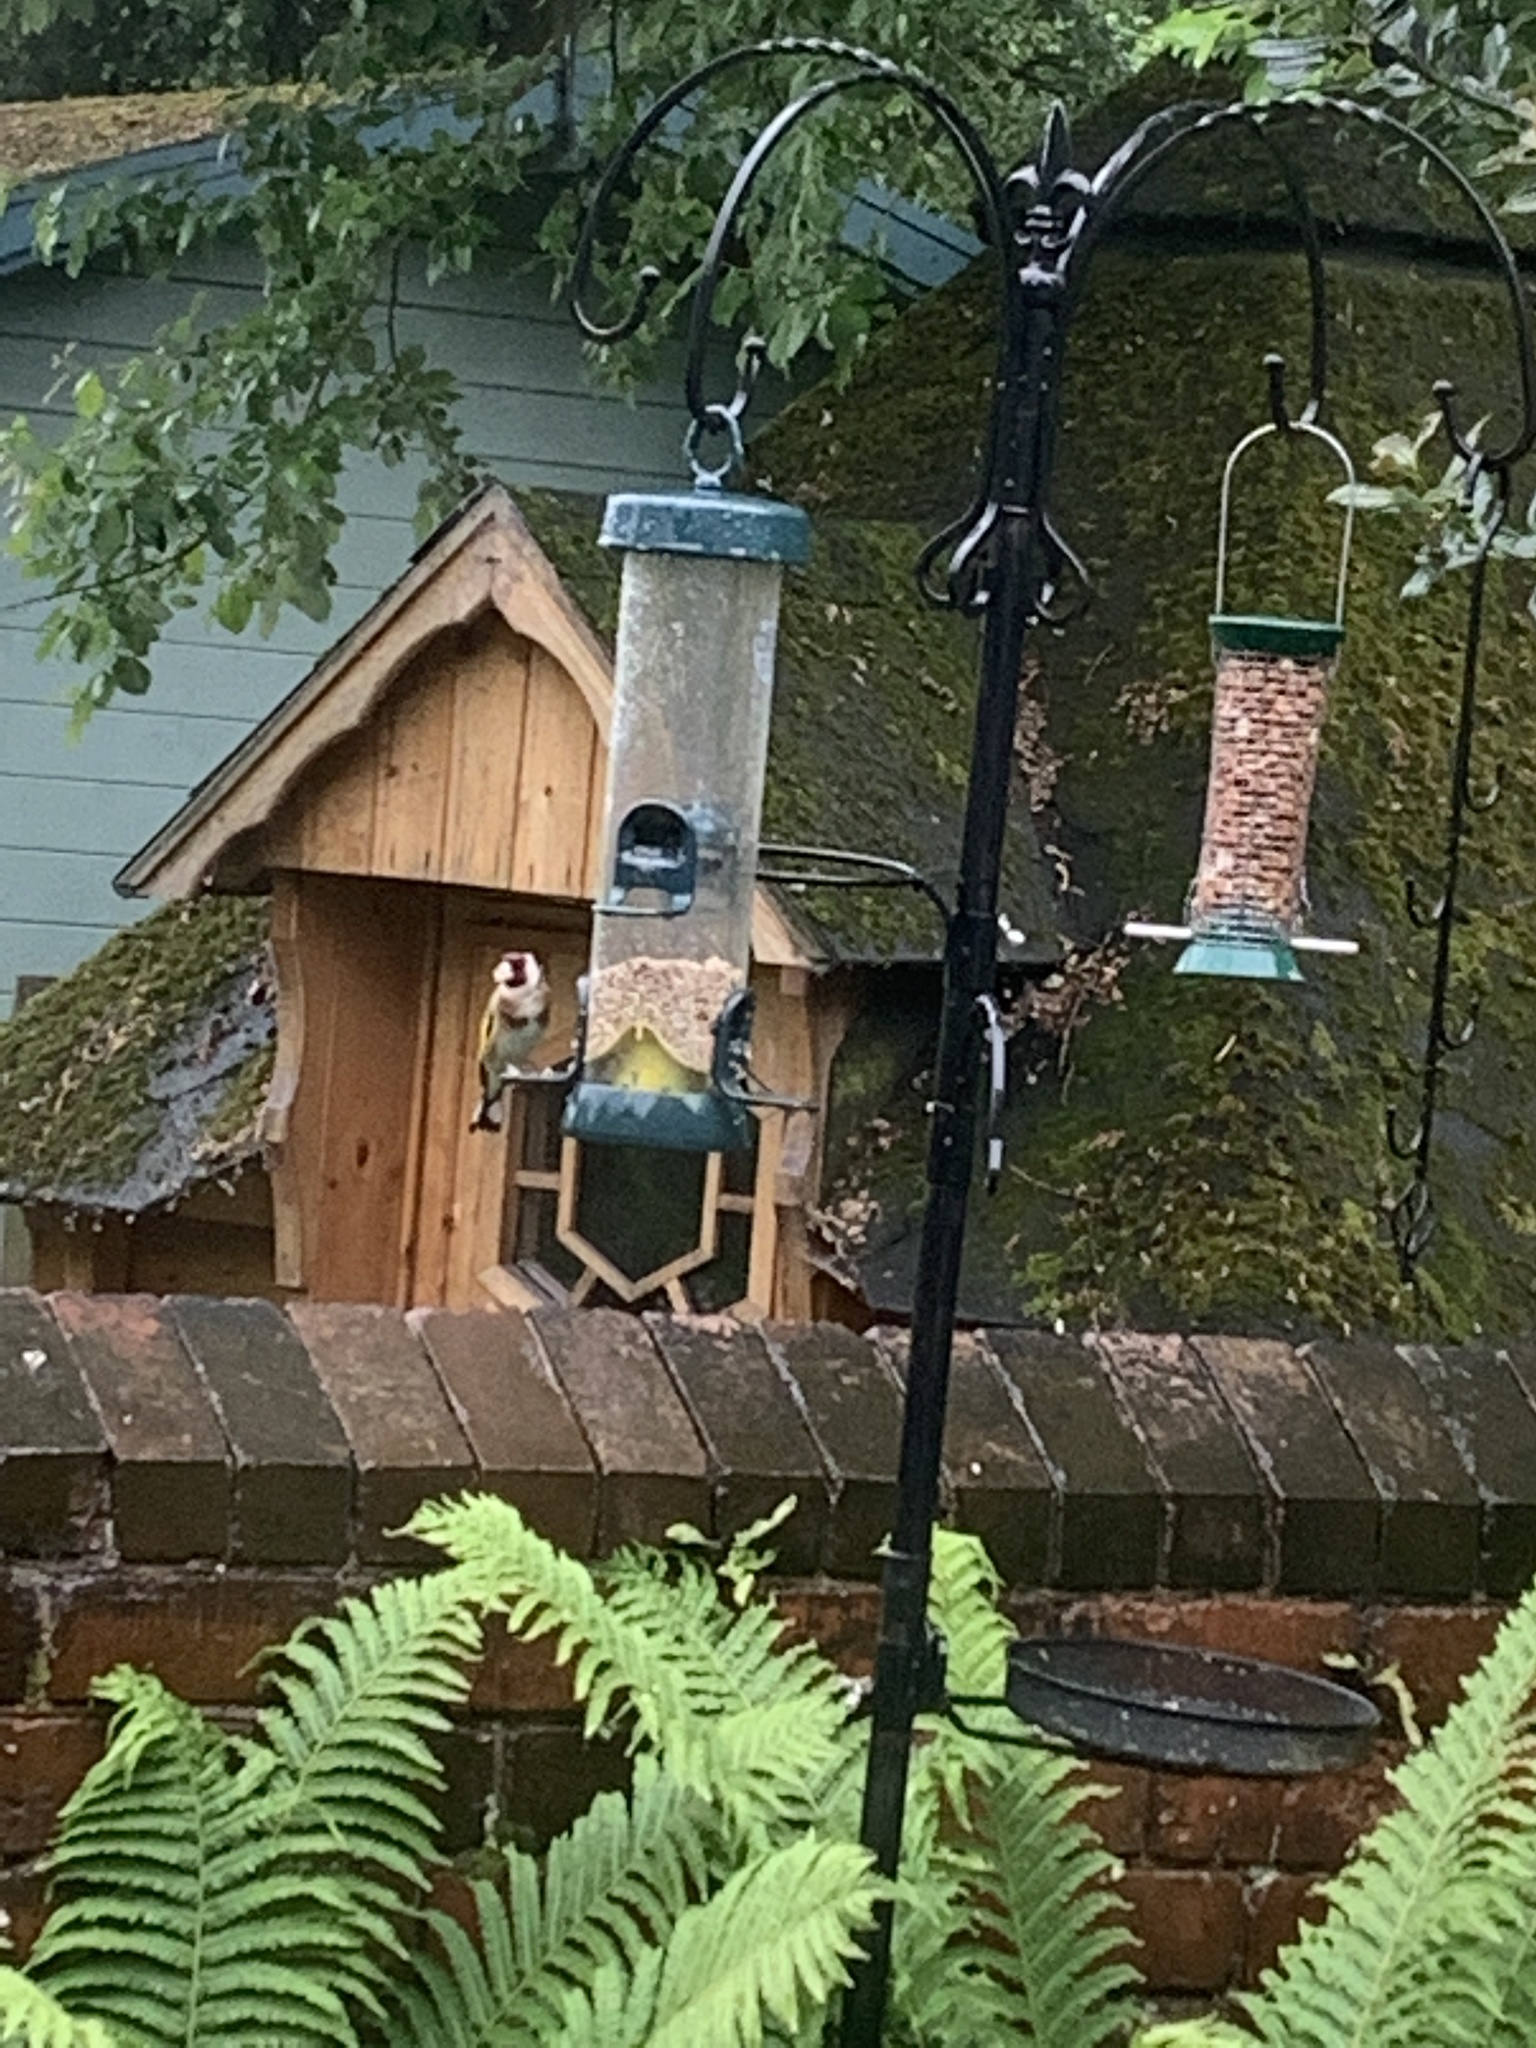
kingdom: Animalia
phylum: Chordata
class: Aves
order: Passeriformes
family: Fringillidae
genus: Carduelis
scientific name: Carduelis carduelis
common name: European goldfinch
